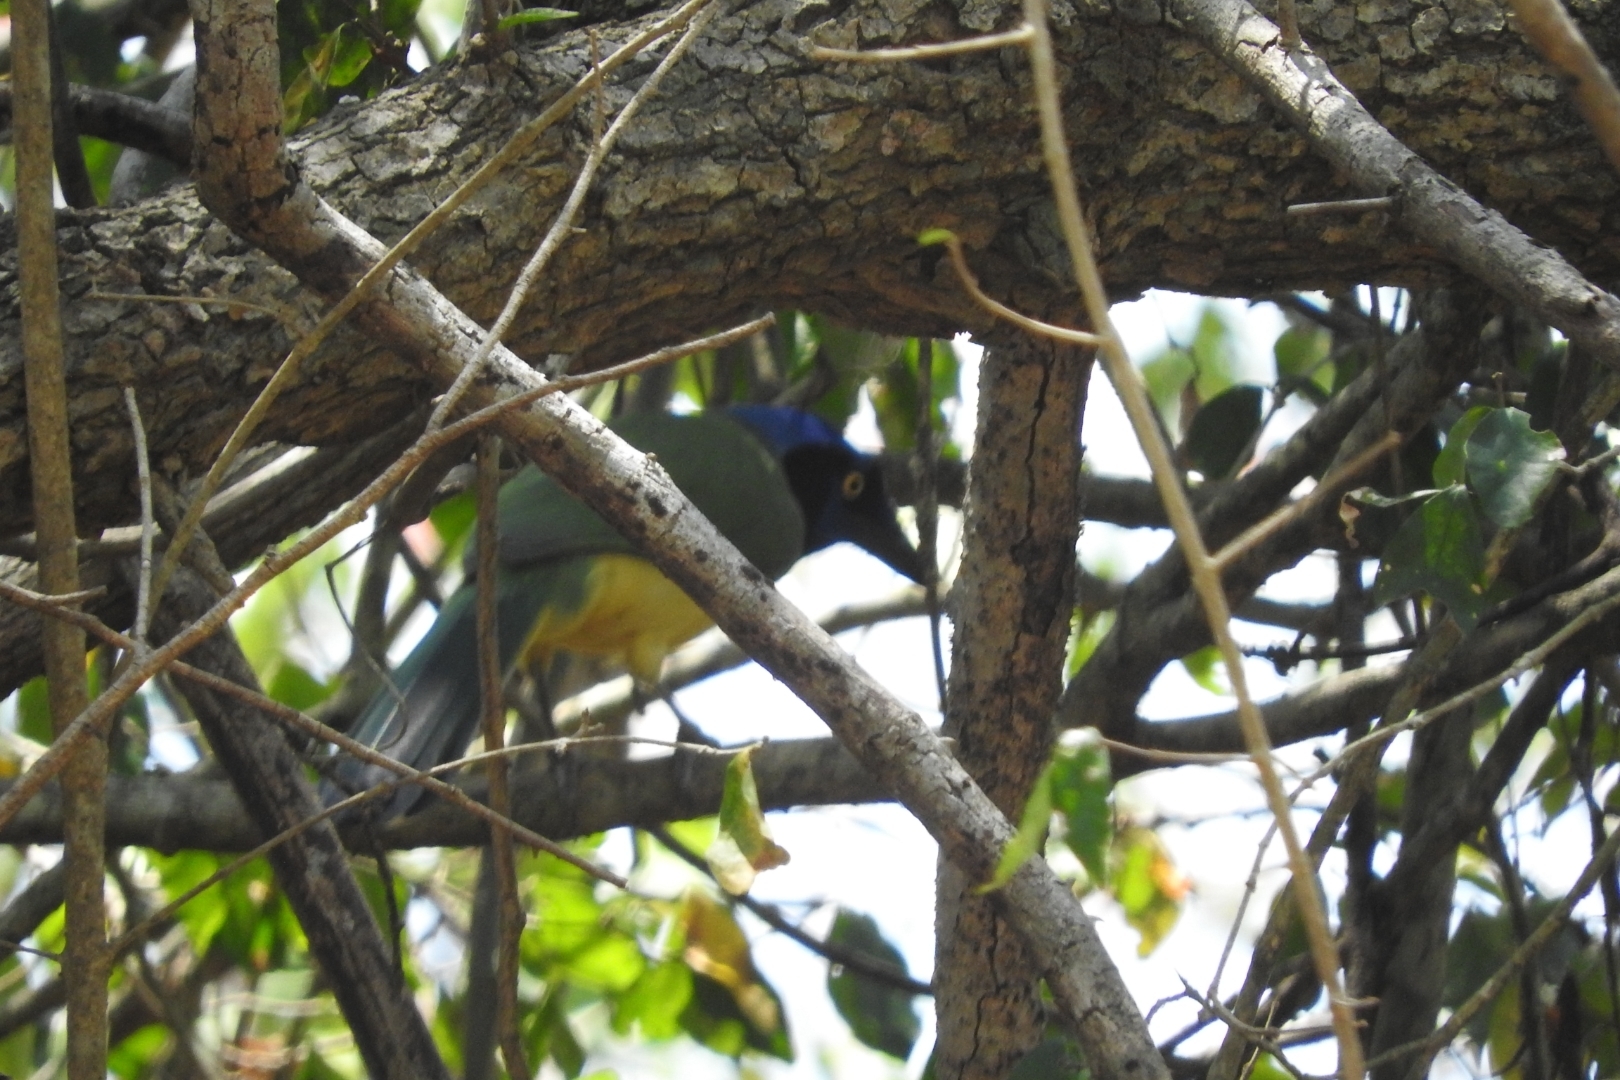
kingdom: Animalia
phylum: Chordata
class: Aves
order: Passeriformes
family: Corvidae
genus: Cyanocorax
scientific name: Cyanocorax yncas
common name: Green jay
